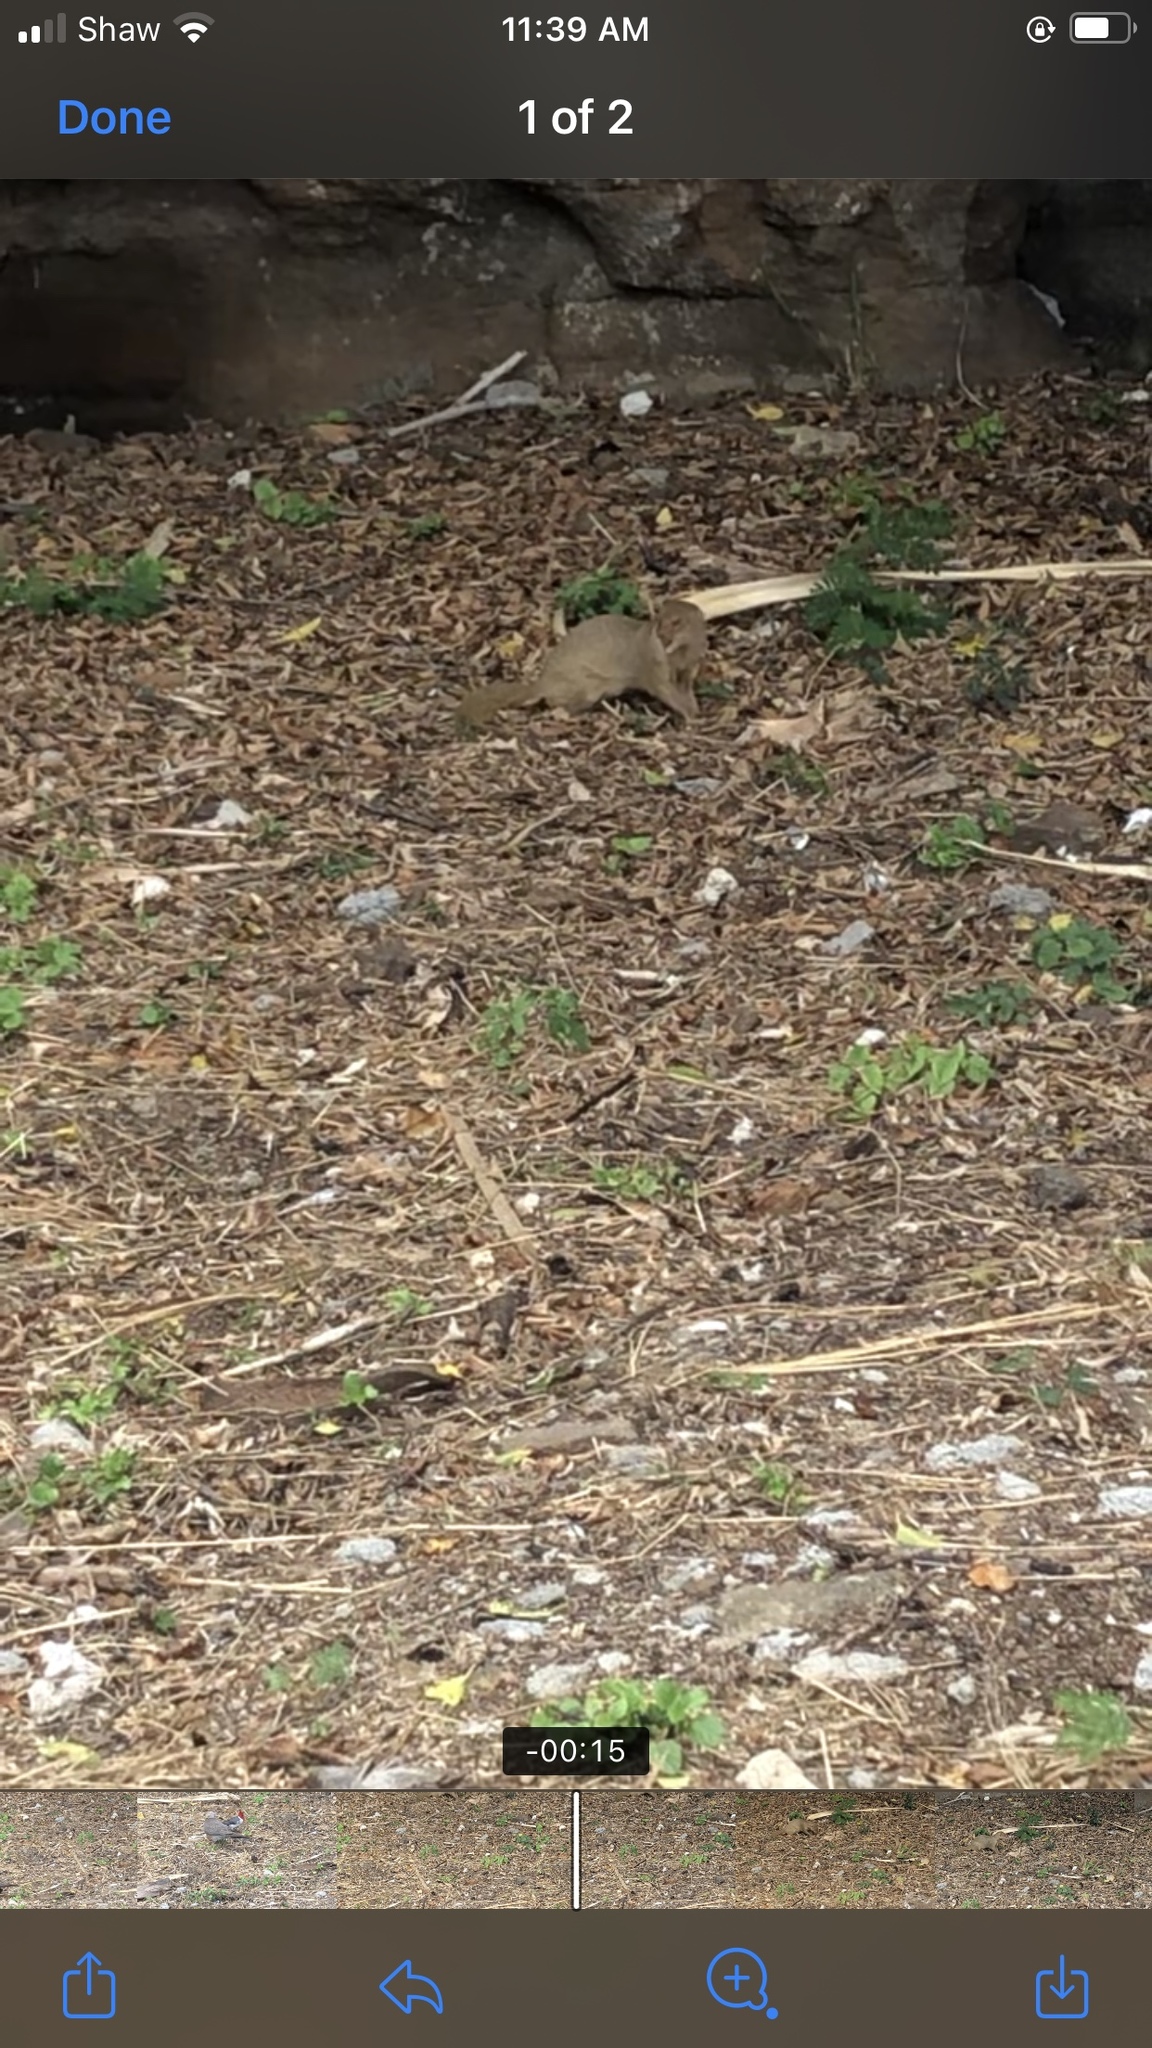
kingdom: Animalia
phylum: Chordata
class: Mammalia
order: Carnivora
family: Herpestidae
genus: Herpestes
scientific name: Herpestes javanicus
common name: Small asian mongoose
